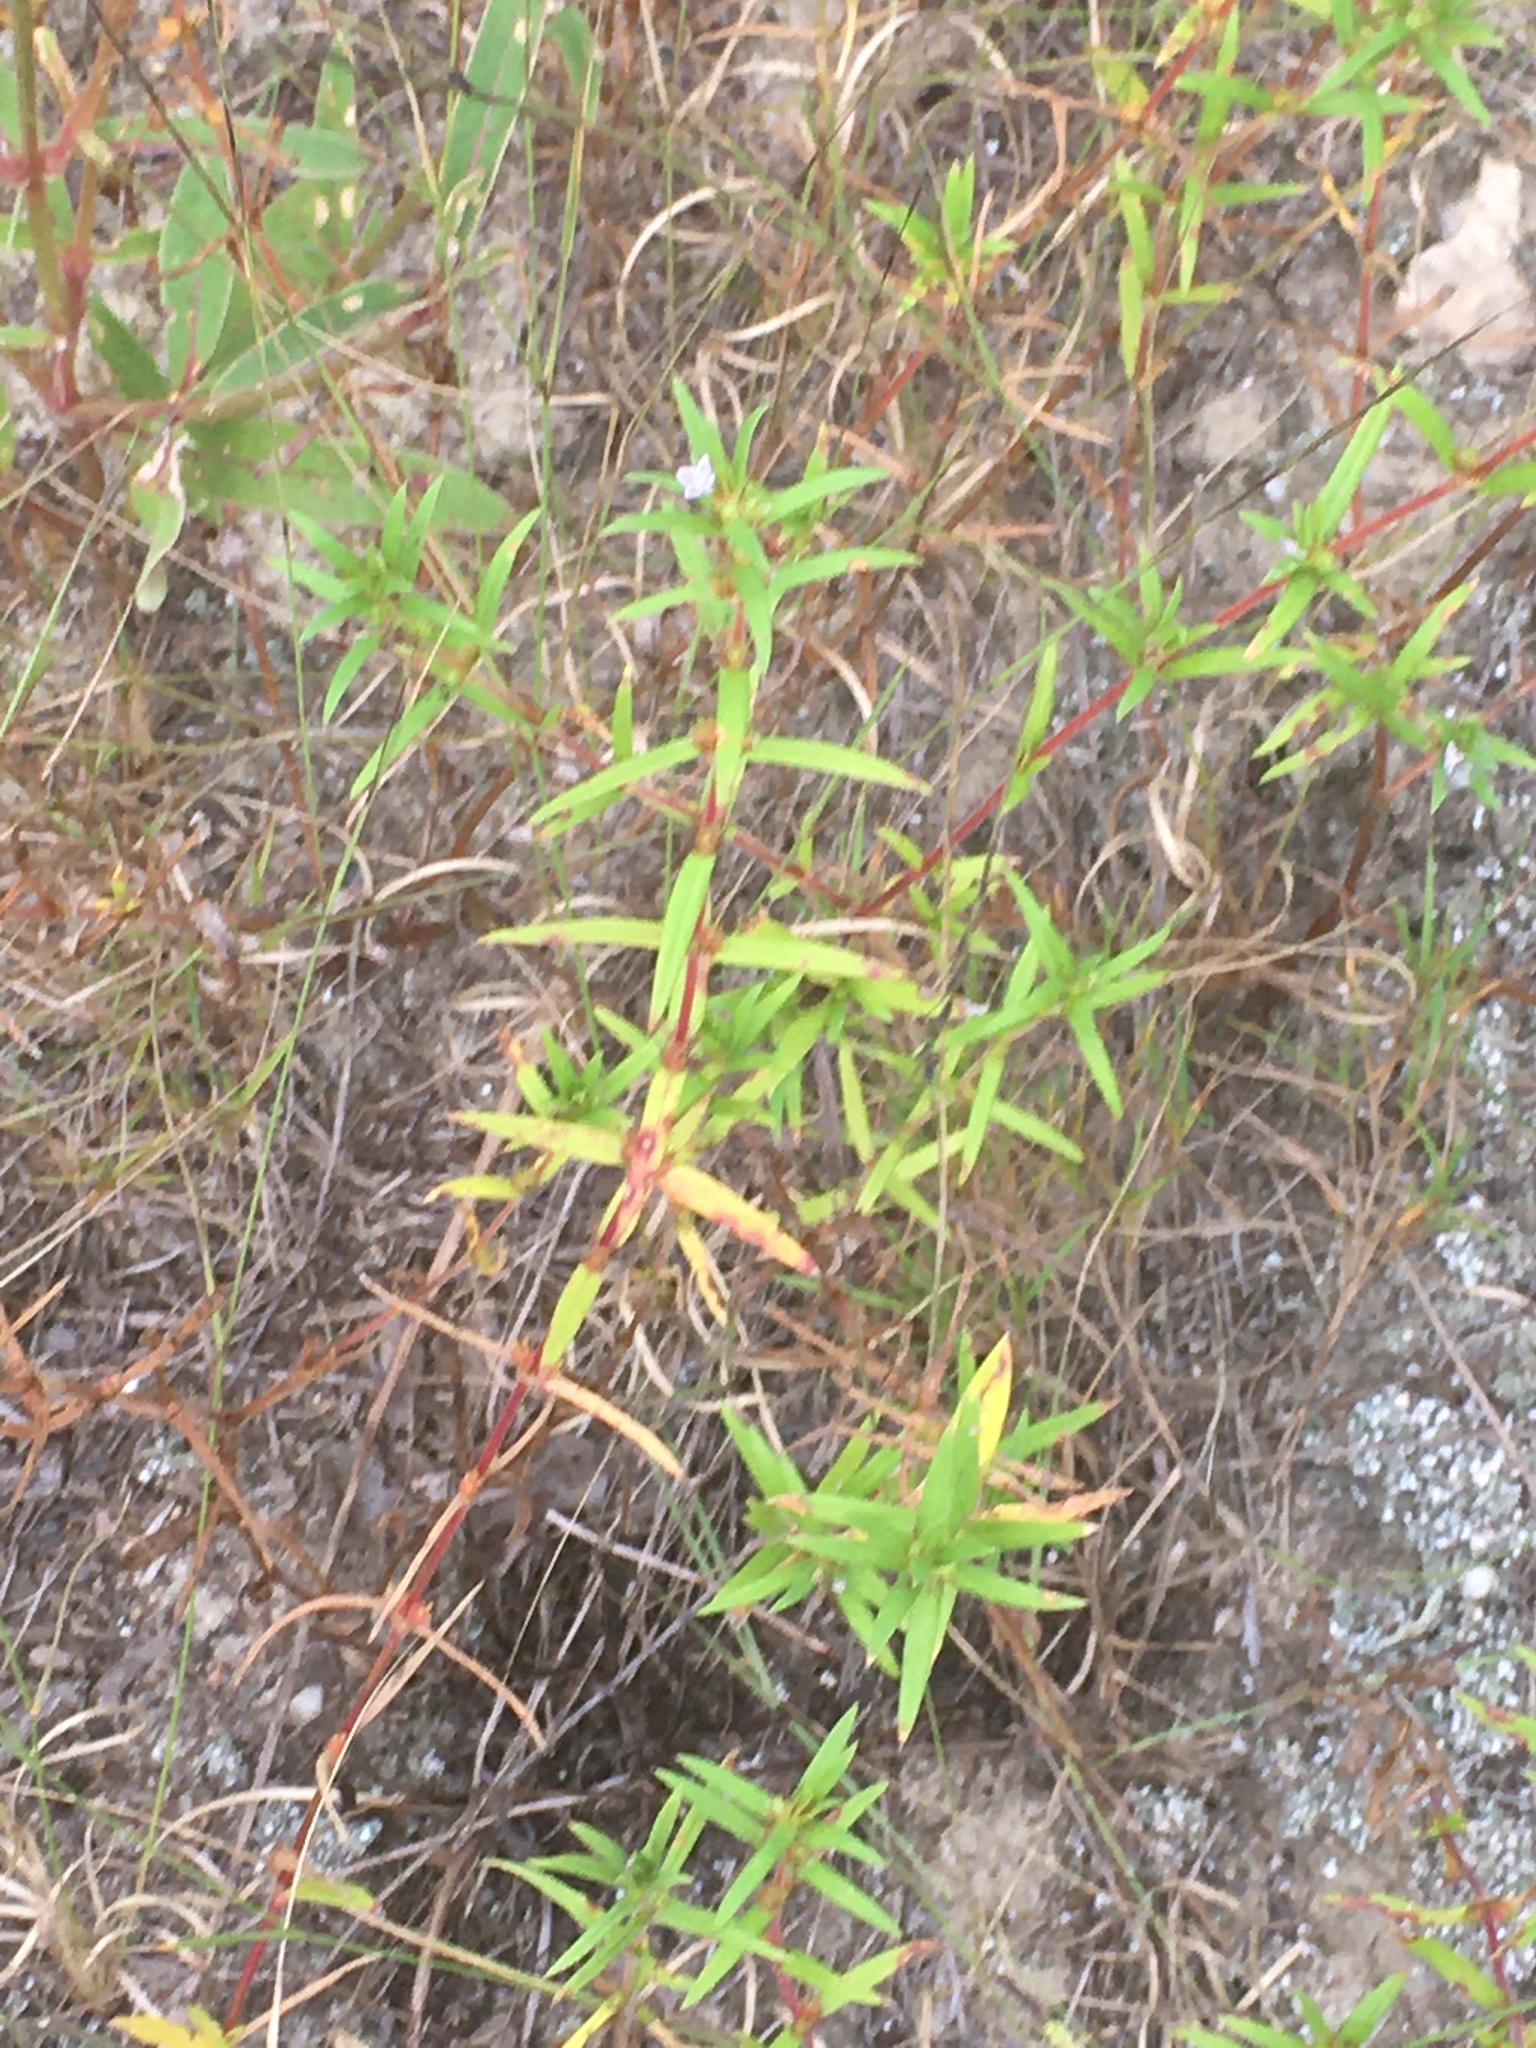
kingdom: Plantae
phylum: Tracheophyta
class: Magnoliopsida
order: Gentianales
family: Rubiaceae
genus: Hexasepalum
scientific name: Hexasepalum teres
